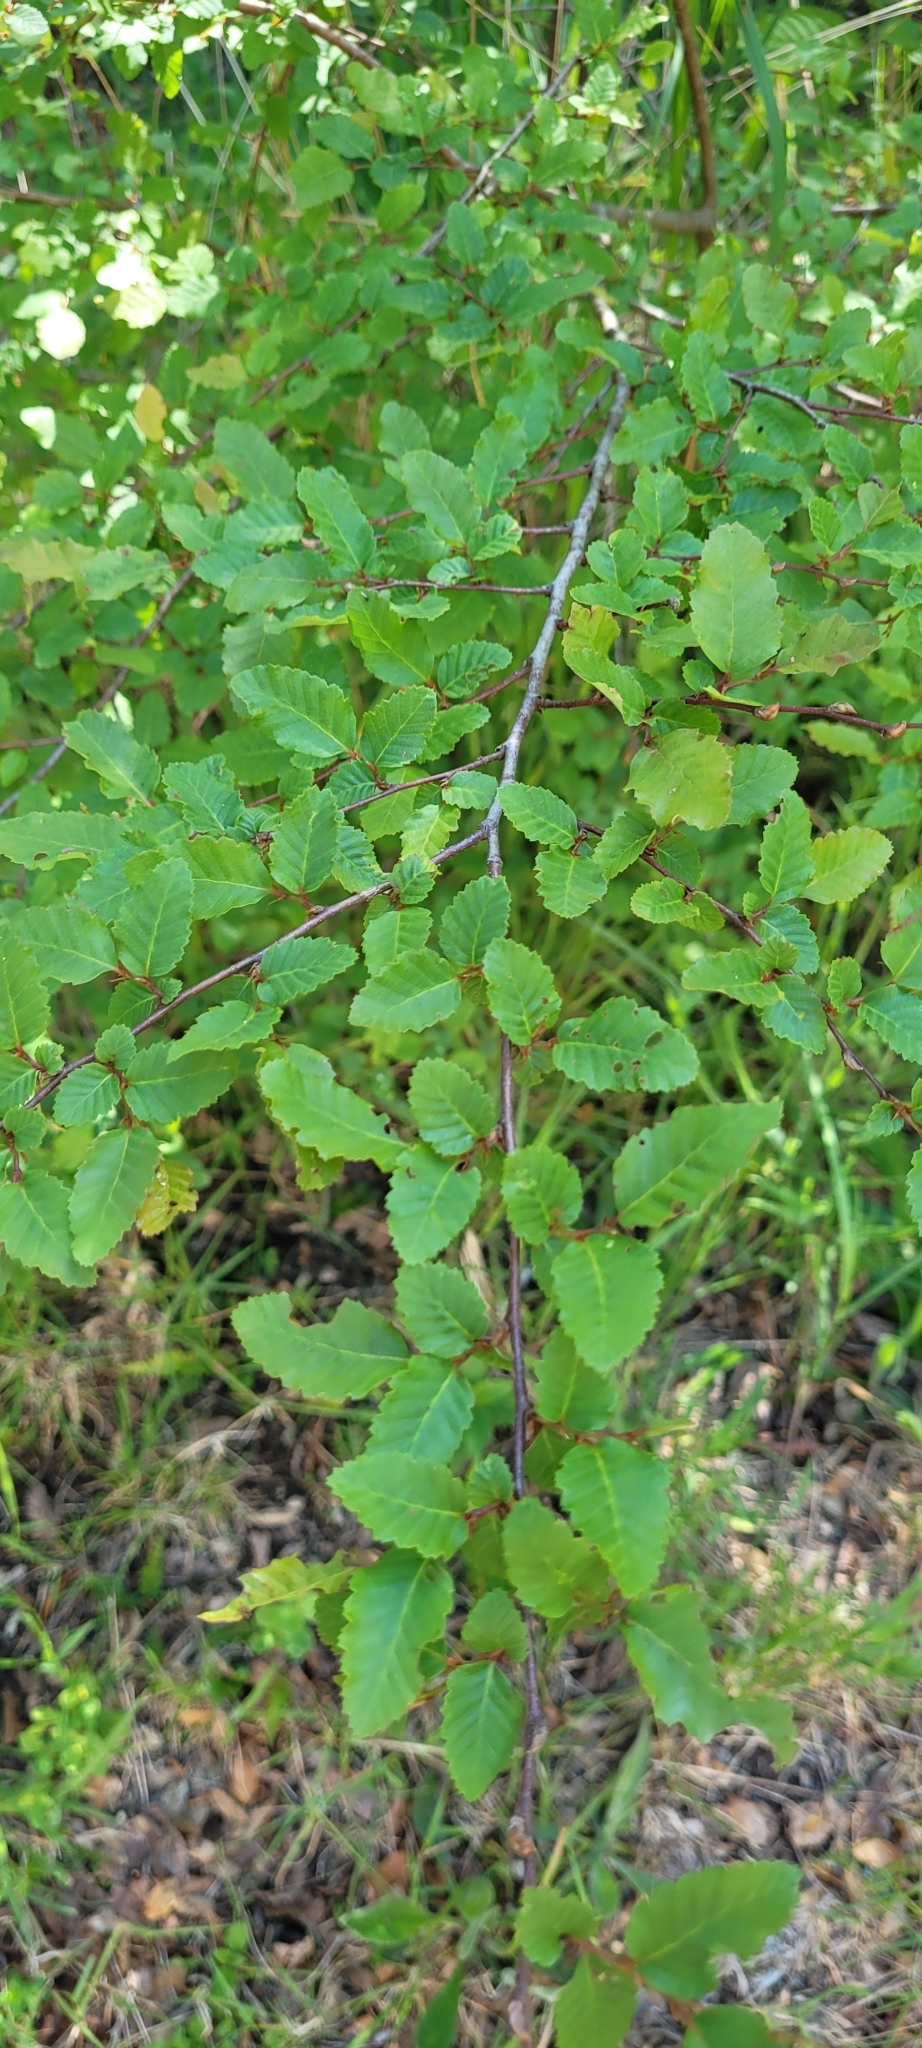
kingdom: Plantae
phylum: Tracheophyta
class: Magnoliopsida
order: Fagales
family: Nothofagaceae
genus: Nothofagus
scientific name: Nothofagus obliqua
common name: Roble beech
